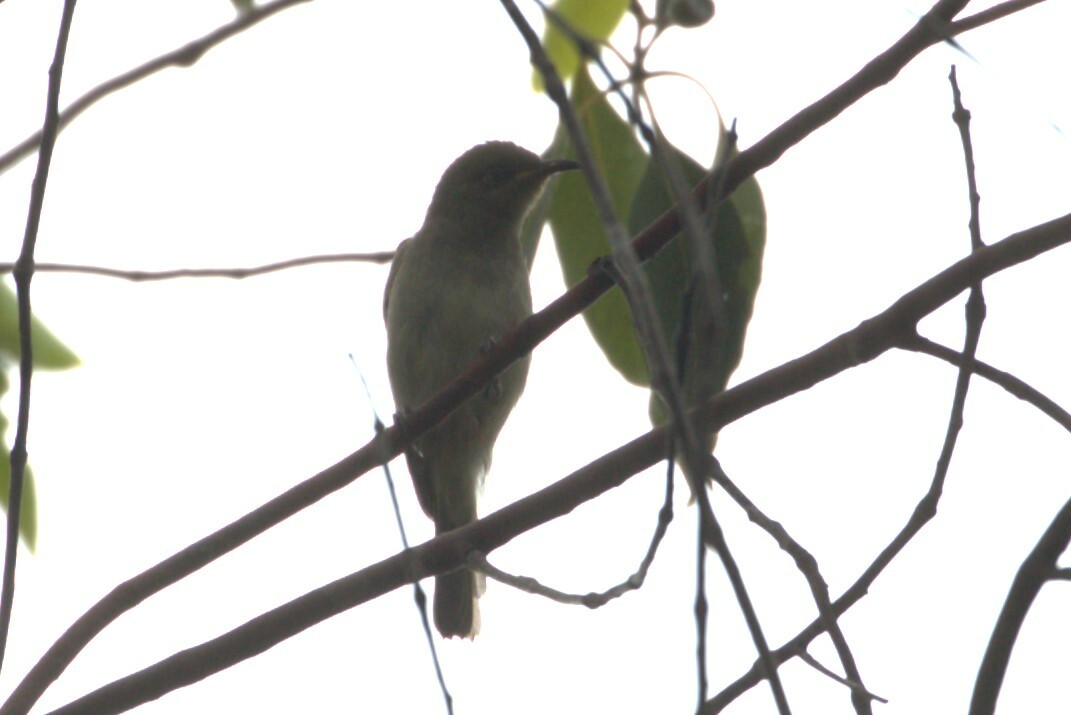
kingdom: Animalia
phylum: Chordata
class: Aves
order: Passeriformes
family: Meliphagidae
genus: Lichmera
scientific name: Lichmera indistincta
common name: Brown honeyeater
